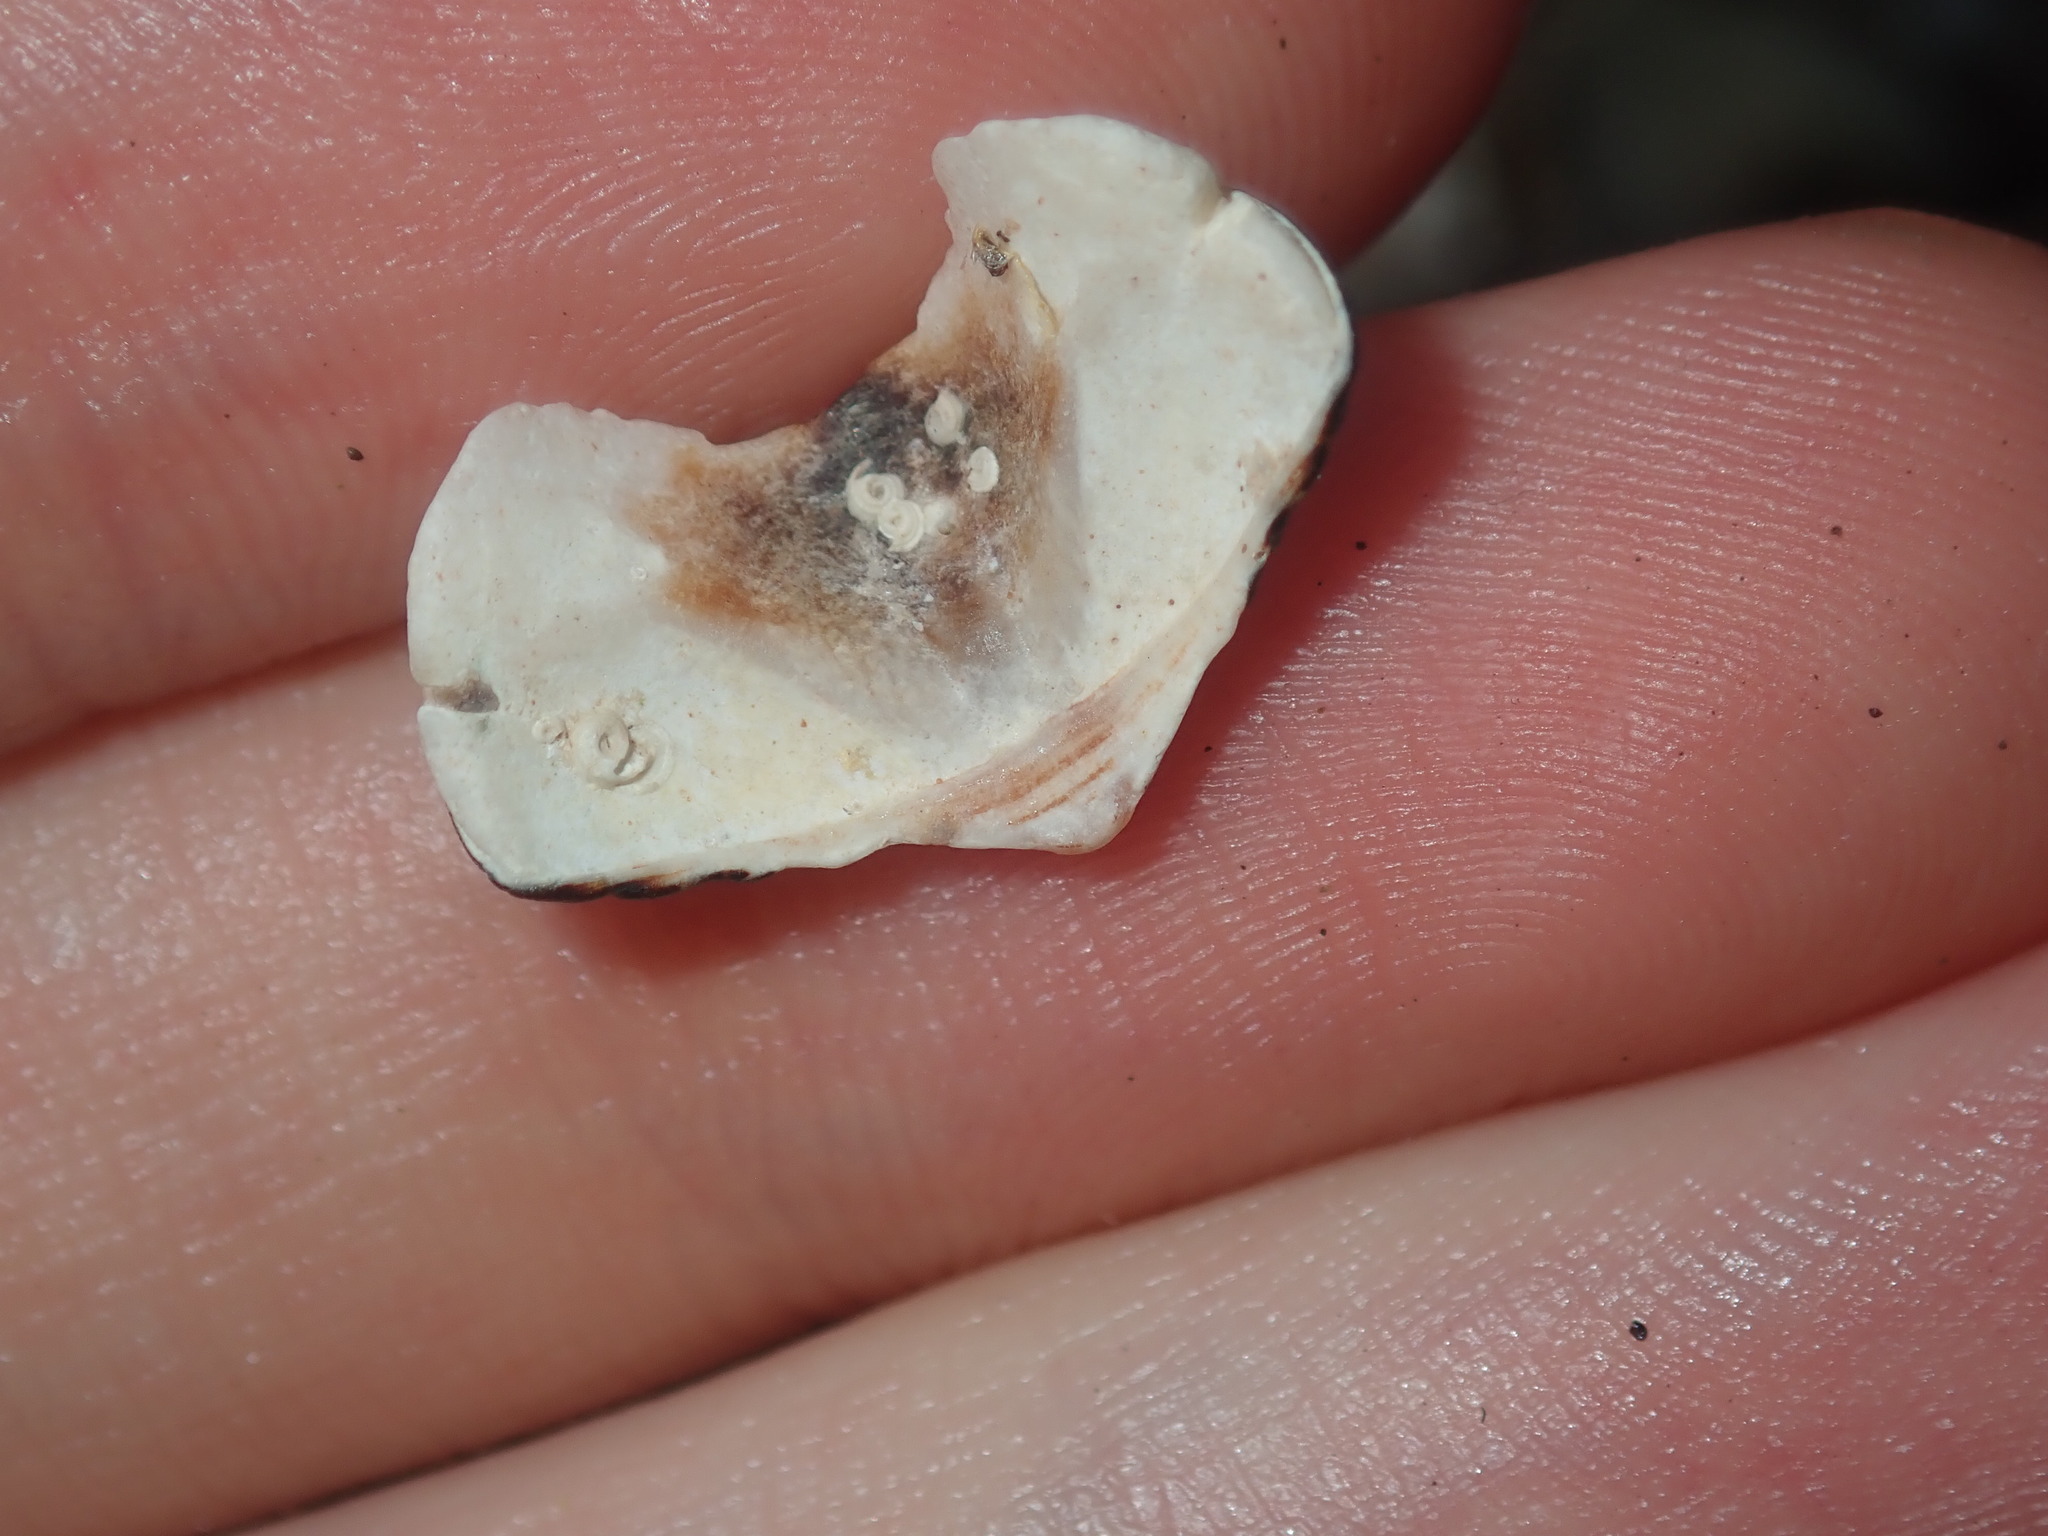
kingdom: Animalia
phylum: Mollusca
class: Polyplacophora
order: Chitonida
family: Chitonidae
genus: Onithochiton
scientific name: Onithochiton quercinus
